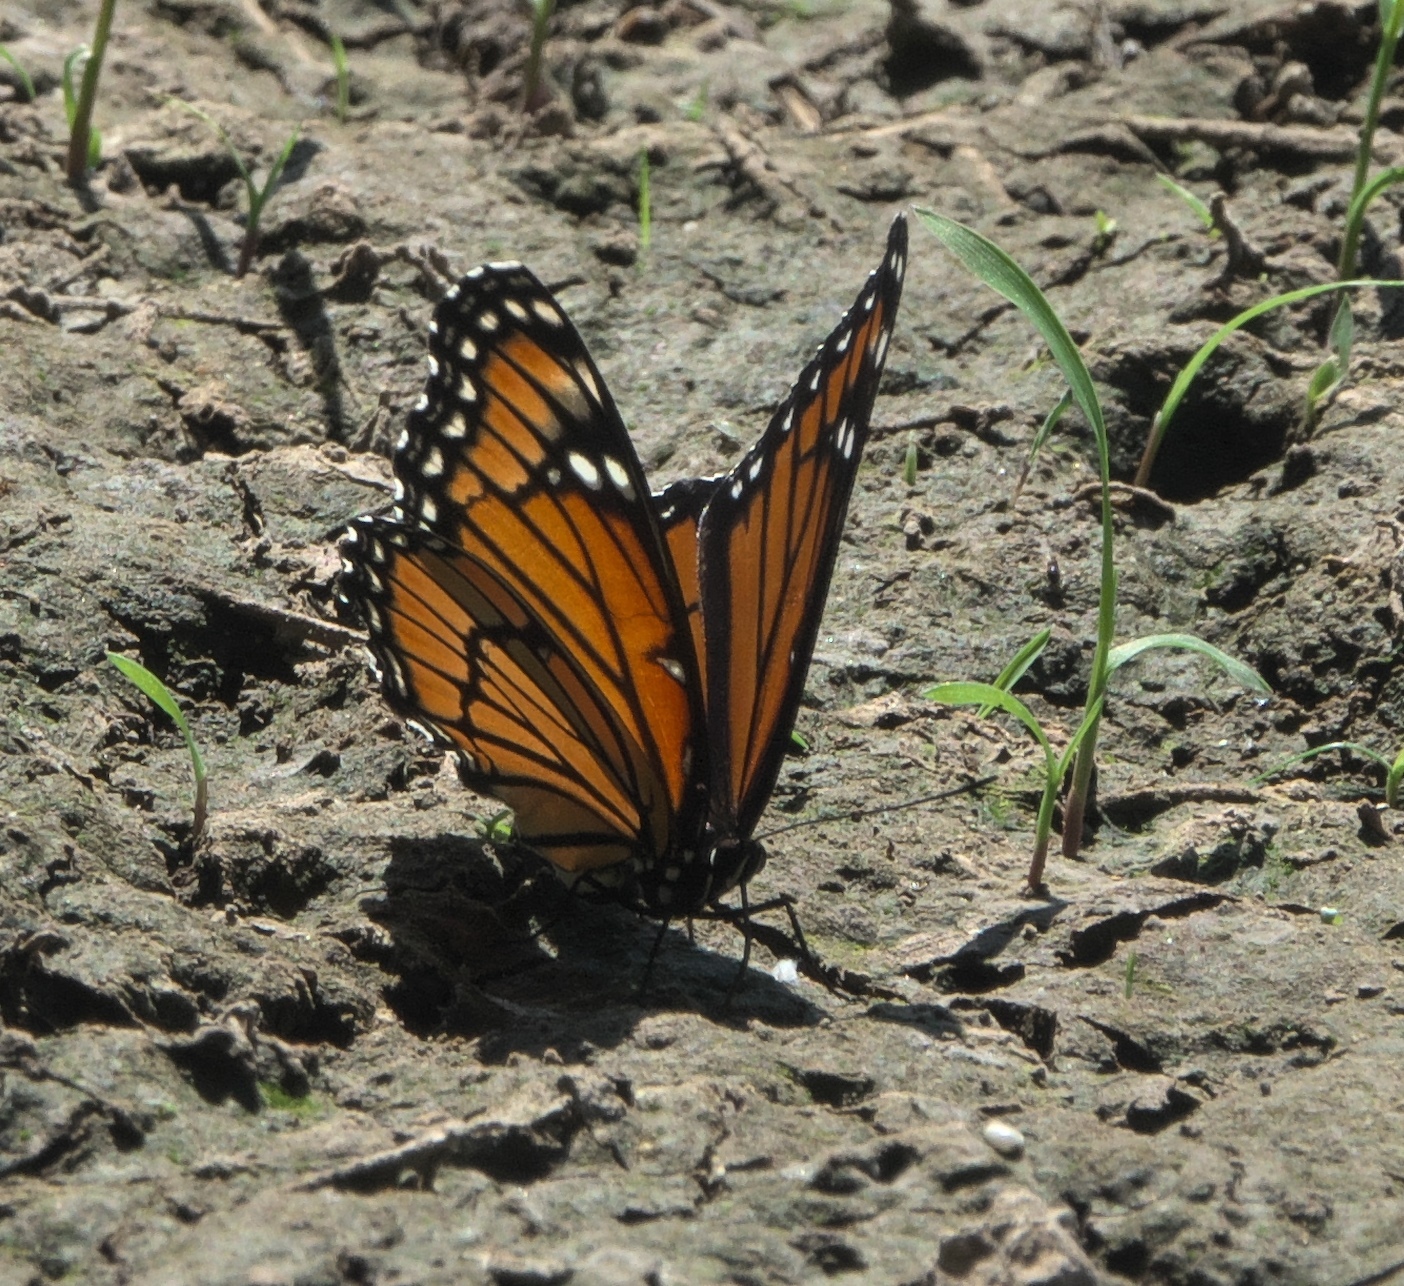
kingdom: Animalia
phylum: Arthropoda
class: Insecta
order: Lepidoptera
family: Nymphalidae
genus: Limenitis
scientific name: Limenitis archippus
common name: Viceroy
